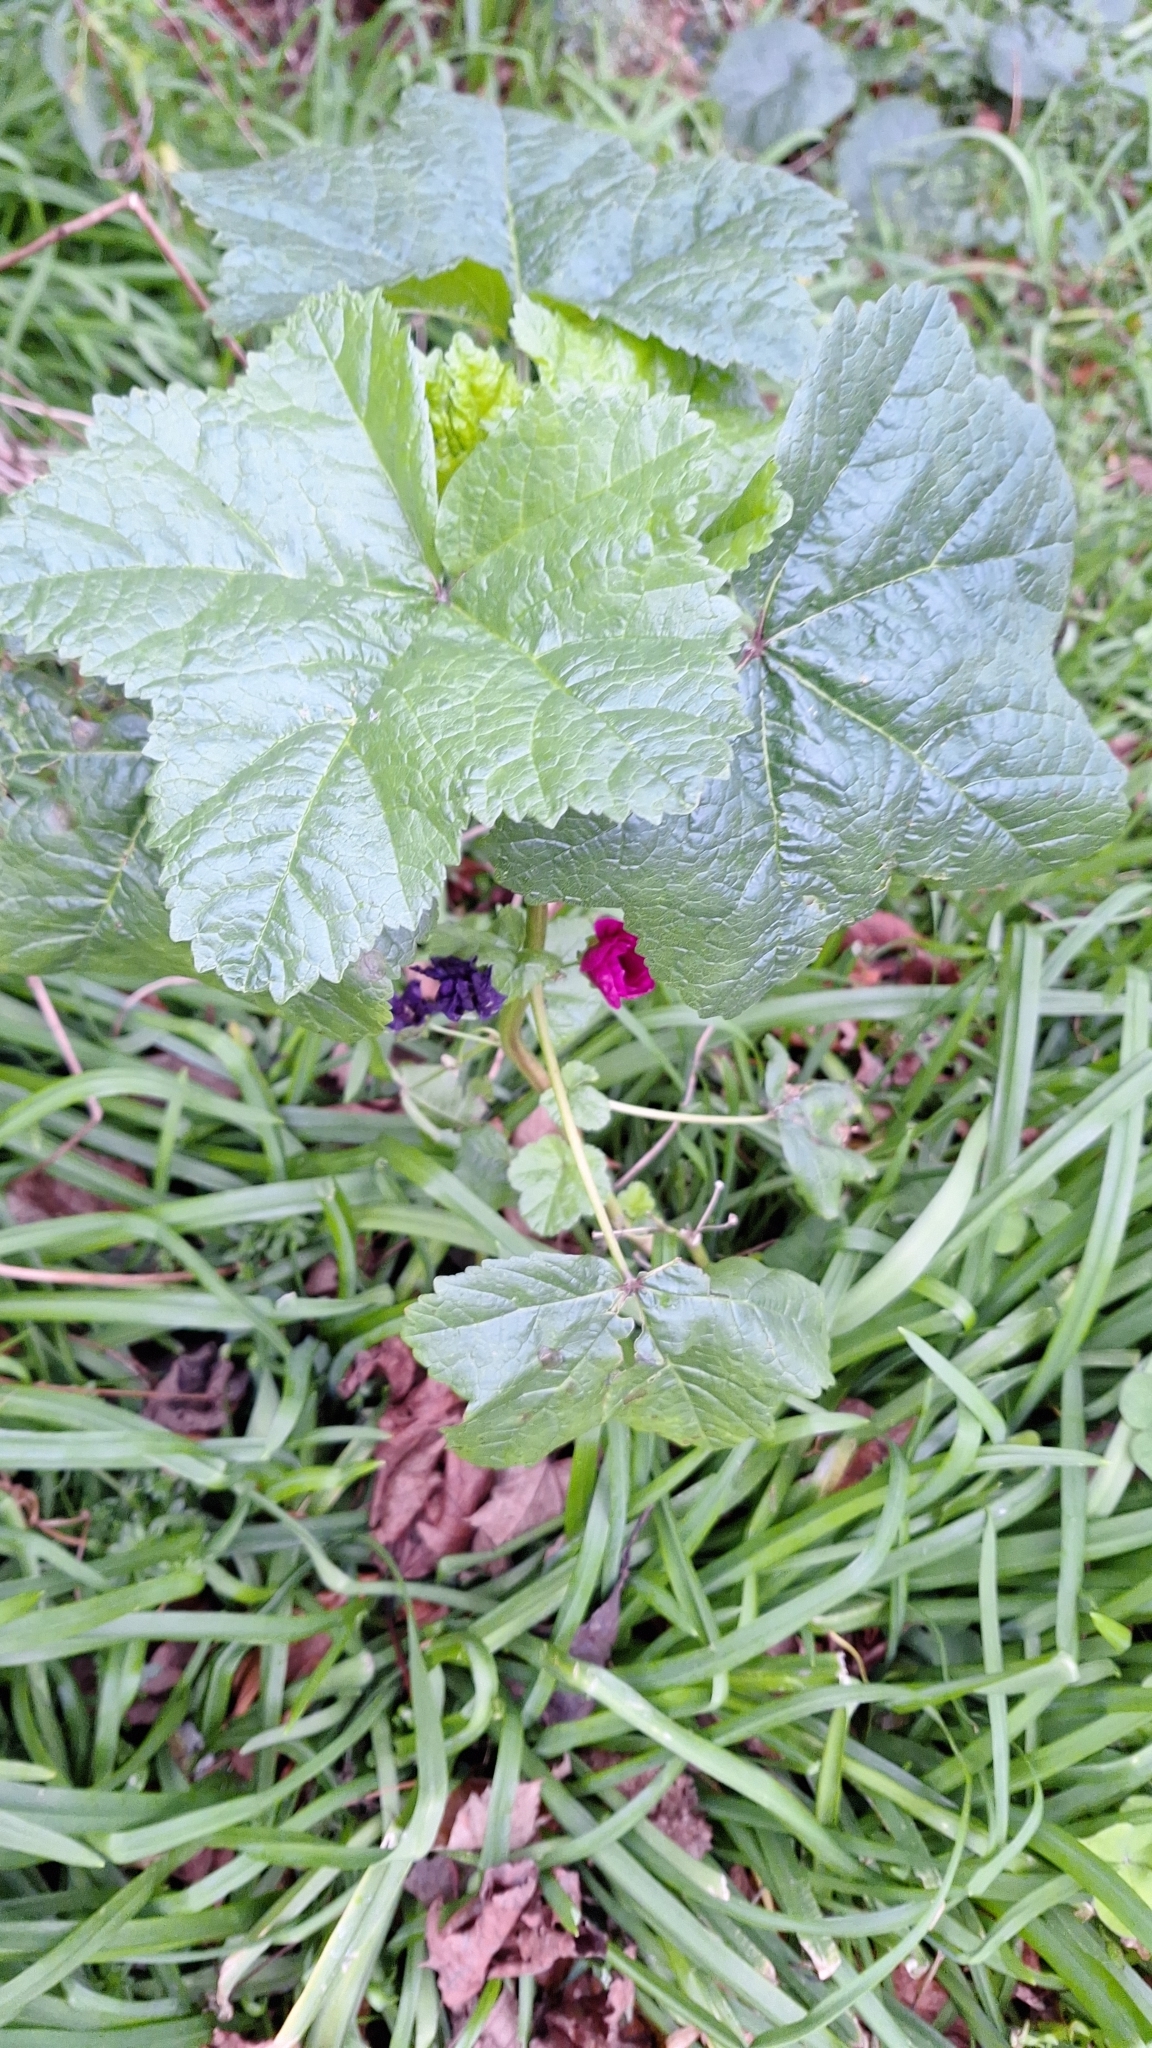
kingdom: Plantae
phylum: Tracheophyta
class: Magnoliopsida
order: Malvales
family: Malvaceae
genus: Malva
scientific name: Malva arborea
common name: Tree mallow
